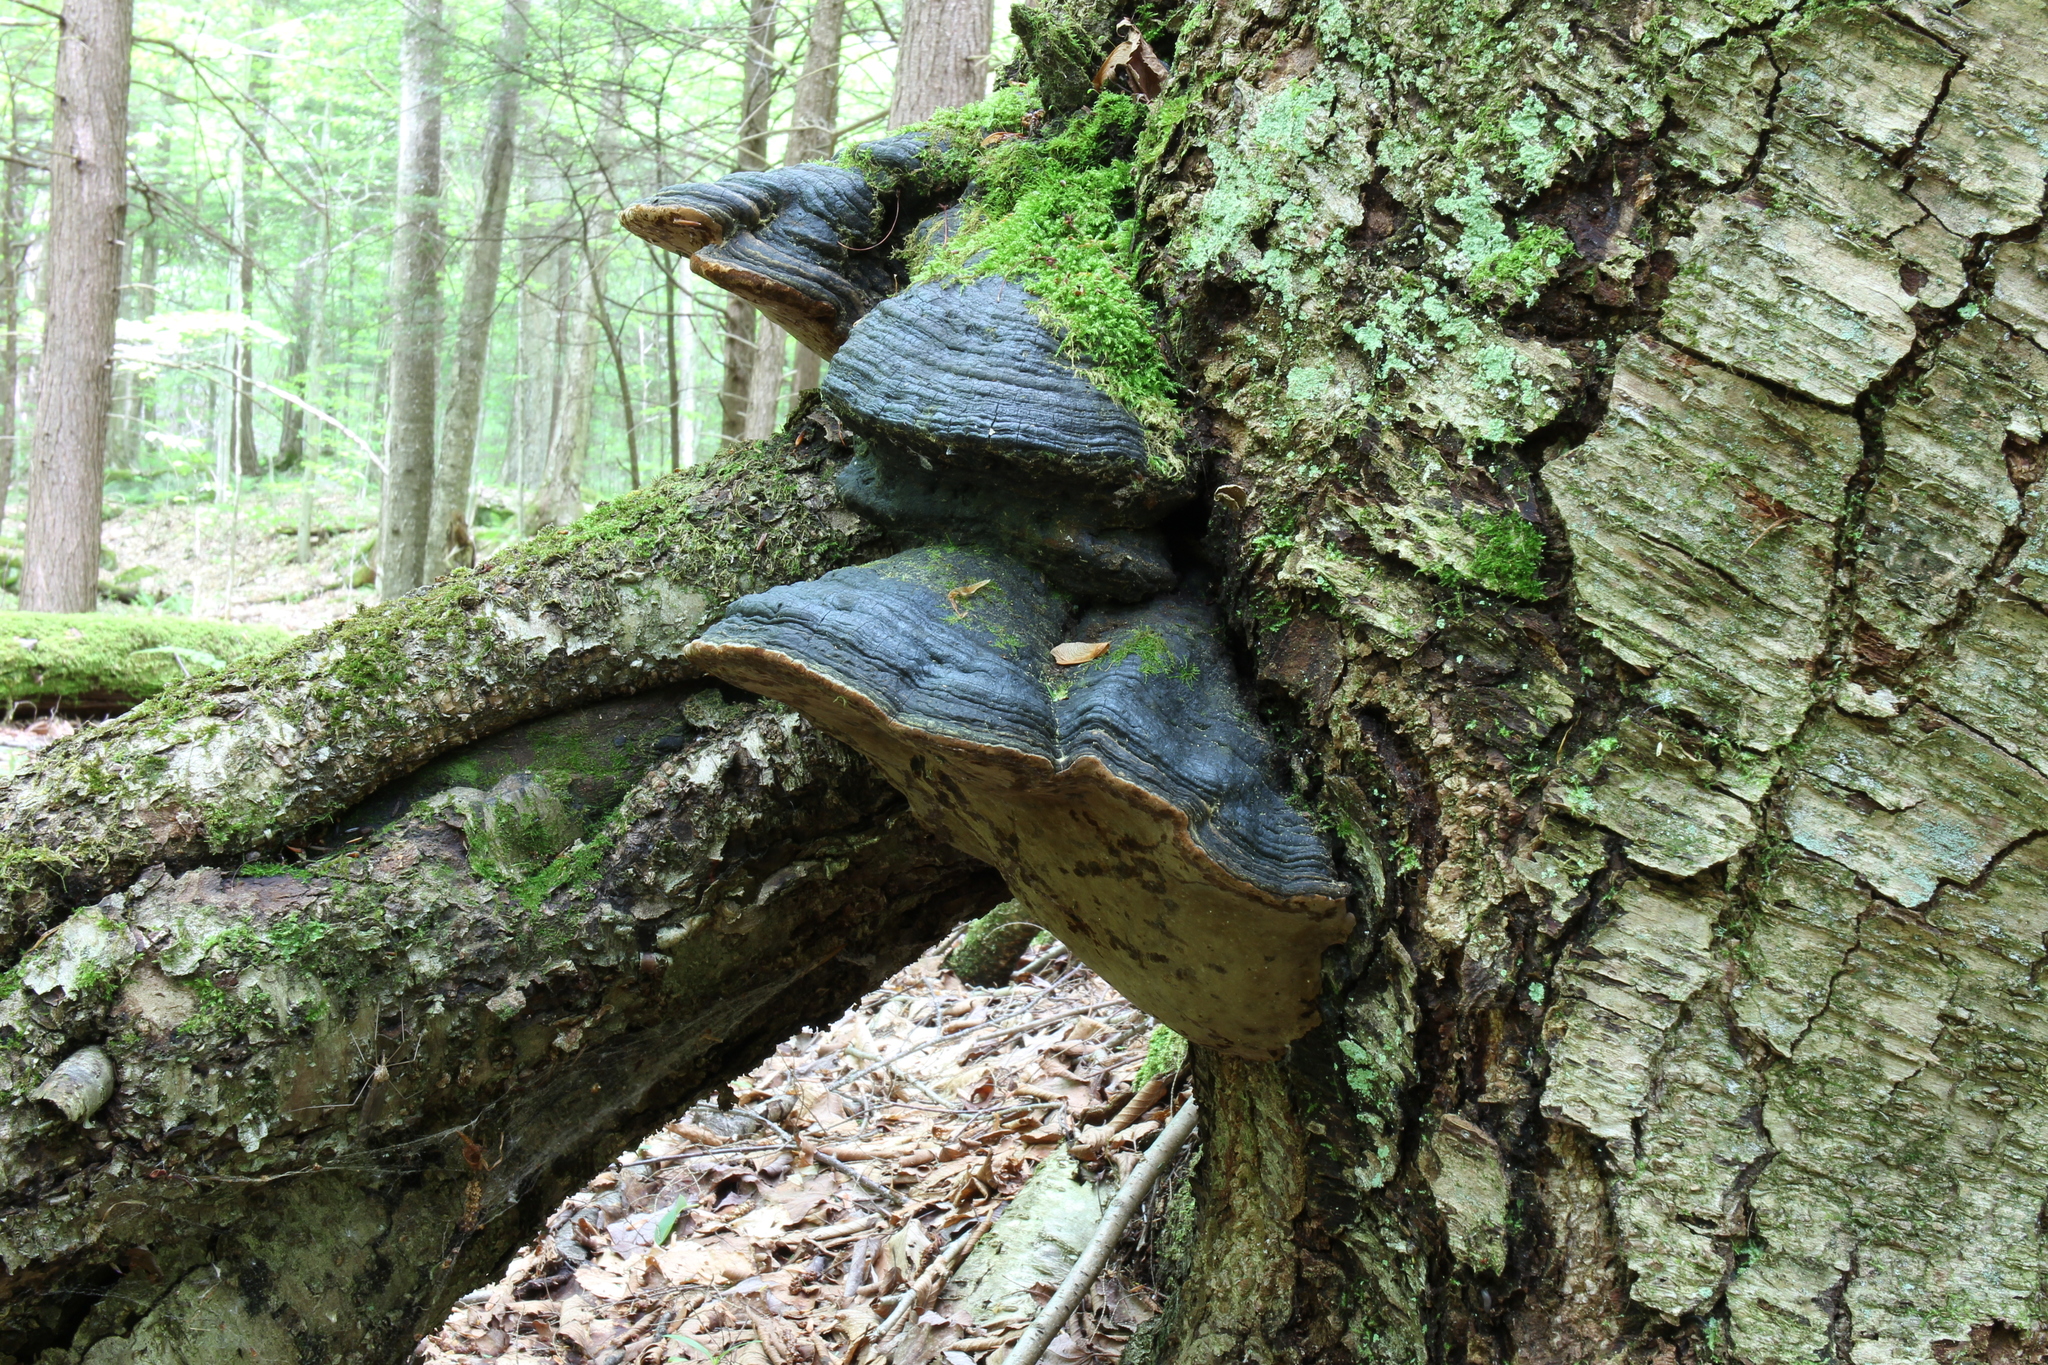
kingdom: Fungi
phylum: Basidiomycota
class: Agaricomycetes
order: Hymenochaetales
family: Hymenochaetaceae
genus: Phellinus
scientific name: Phellinus lundellii
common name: Birch bristle bracket
